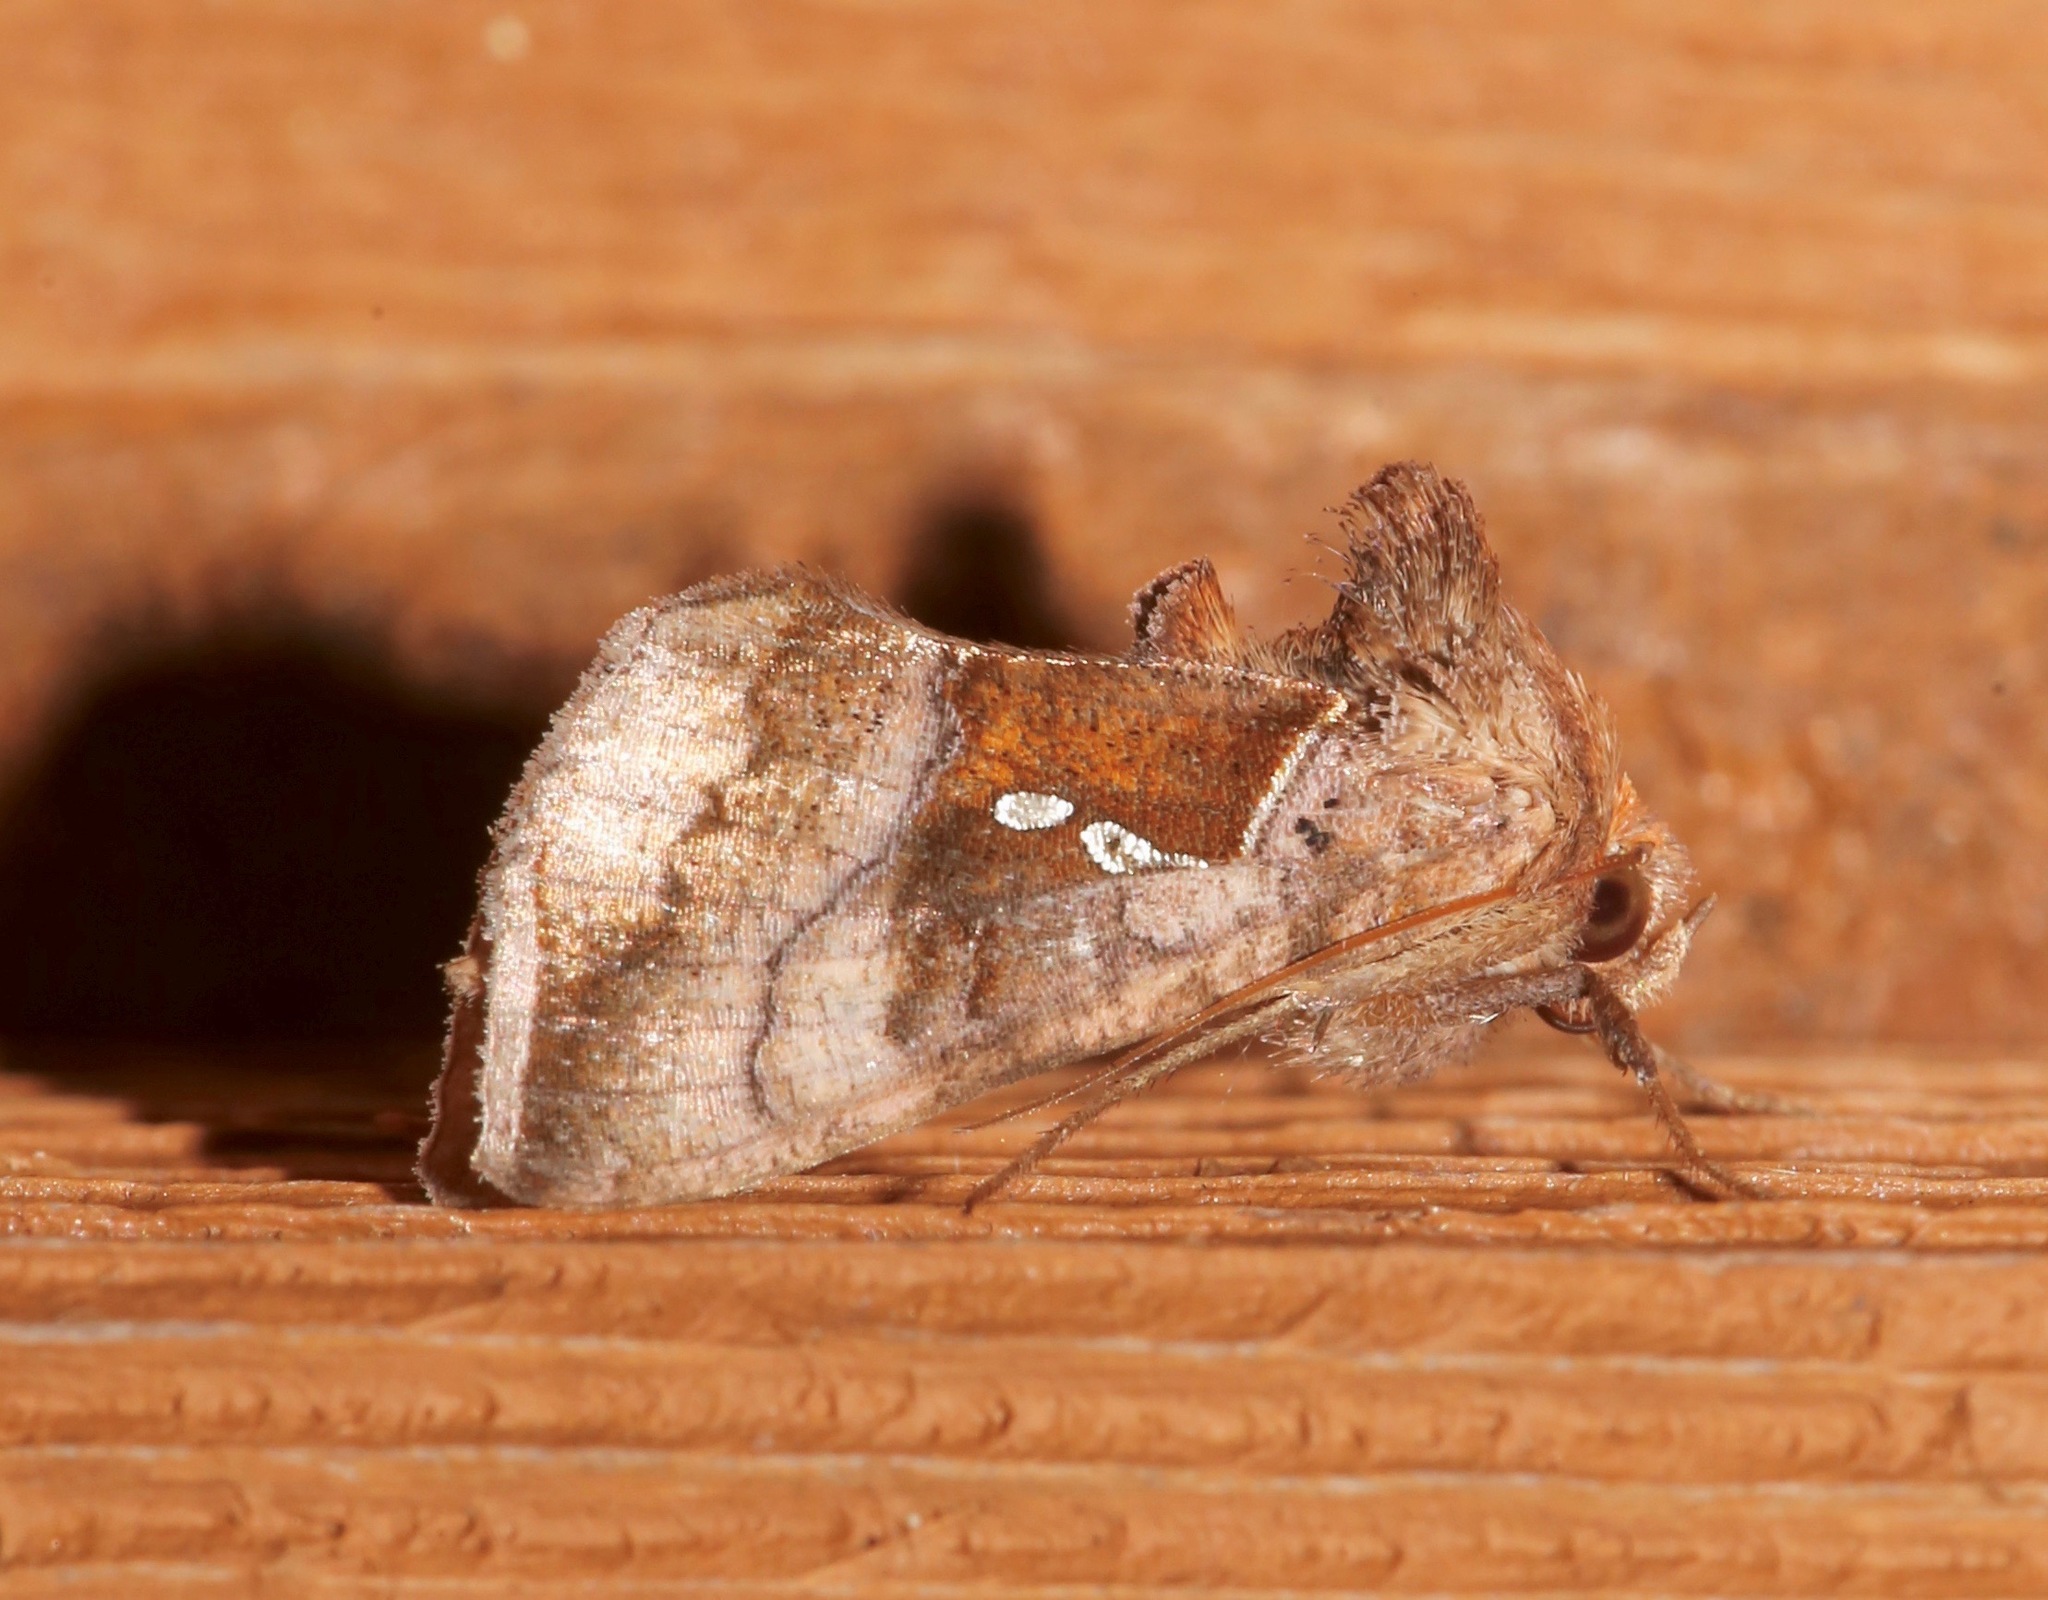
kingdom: Animalia
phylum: Arthropoda
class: Insecta
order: Lepidoptera
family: Noctuidae
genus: Enigmogramma
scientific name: Enigmogramma basigera
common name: Pink-washed looper moth
